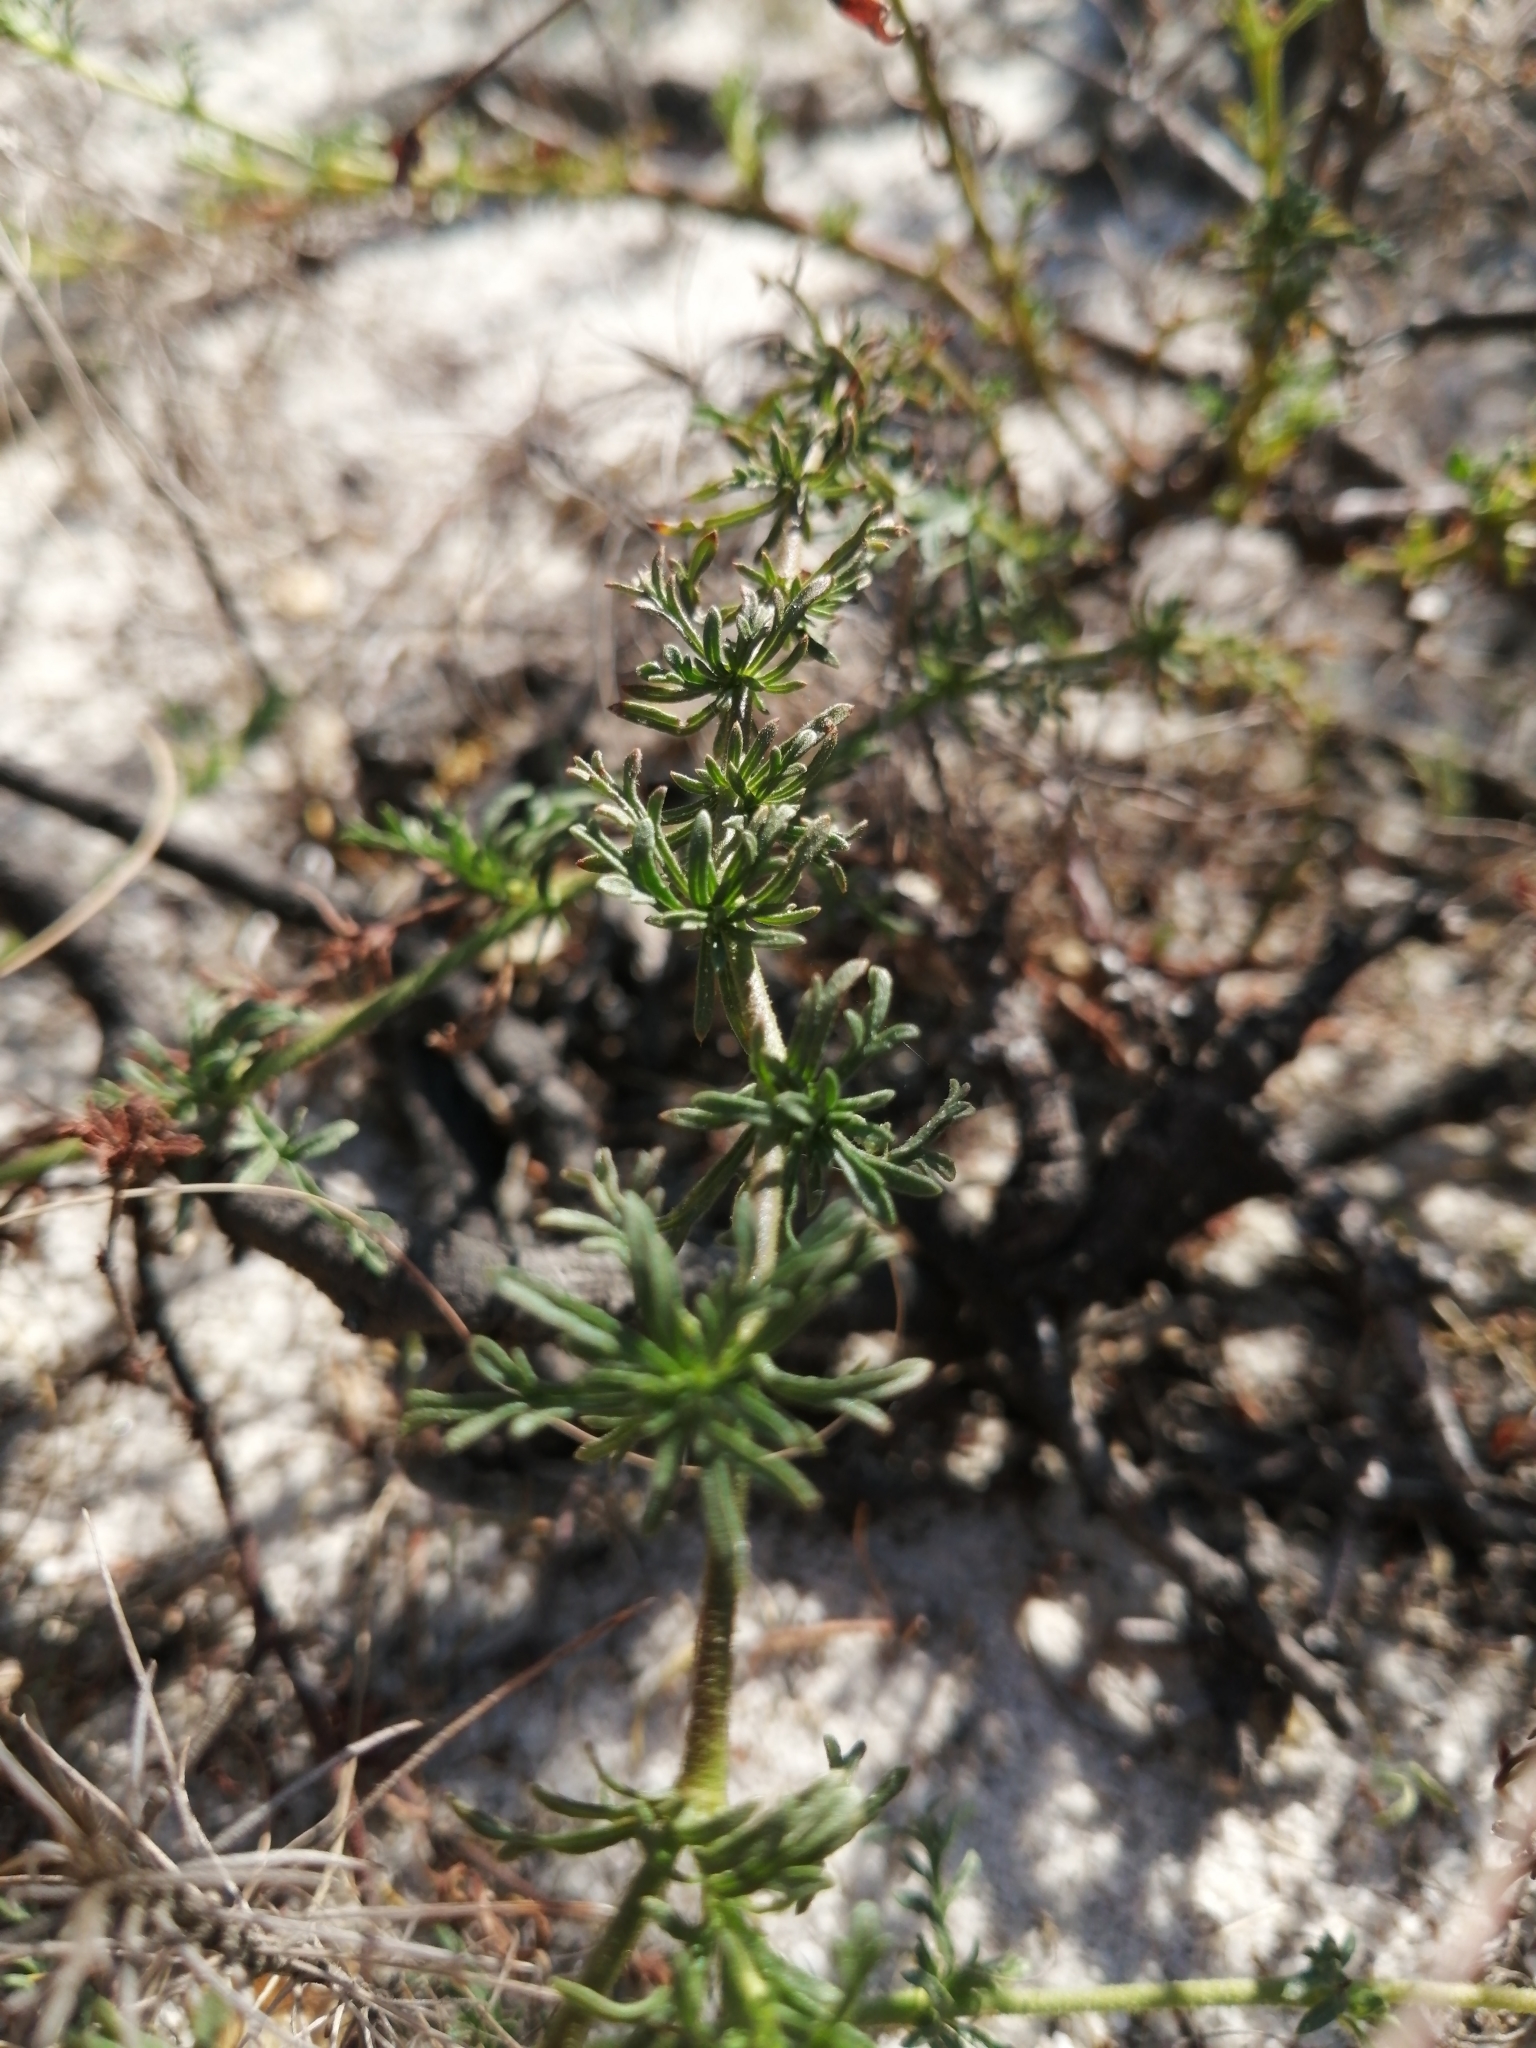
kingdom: Plantae
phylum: Tracheophyta
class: Magnoliopsida
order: Asterales
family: Asteraceae
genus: Ursinia
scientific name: Ursinia chrysanthemoides
